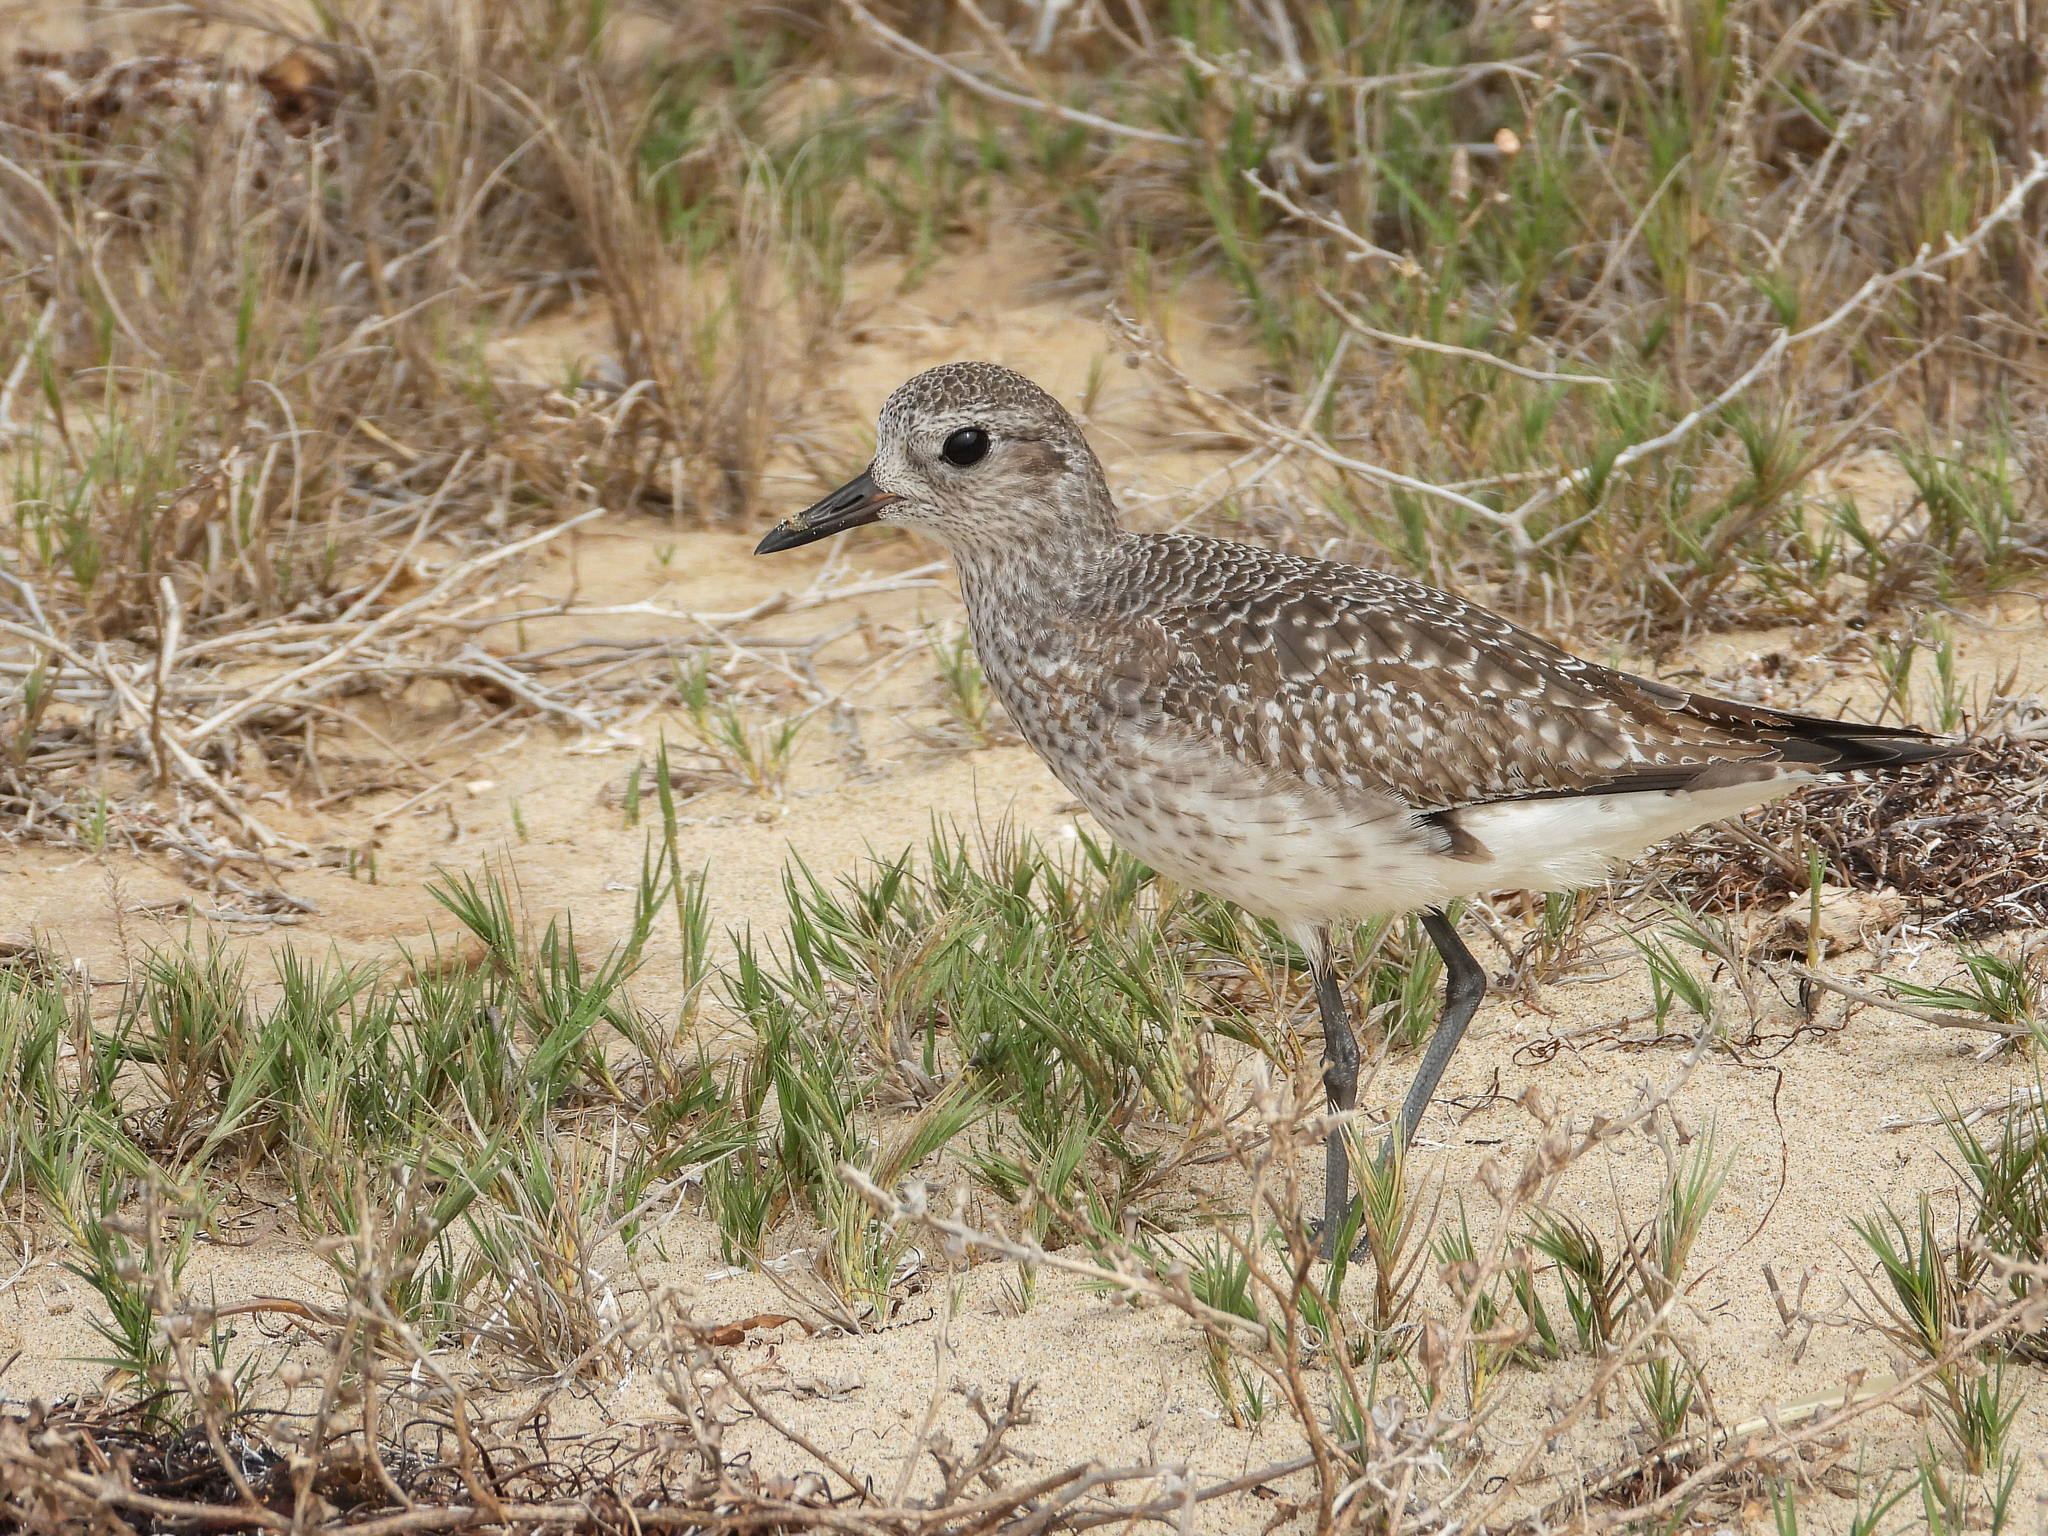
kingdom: Animalia
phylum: Chordata
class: Aves
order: Charadriiformes
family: Charadriidae
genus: Pluvialis
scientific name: Pluvialis squatarola
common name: Grey plover
